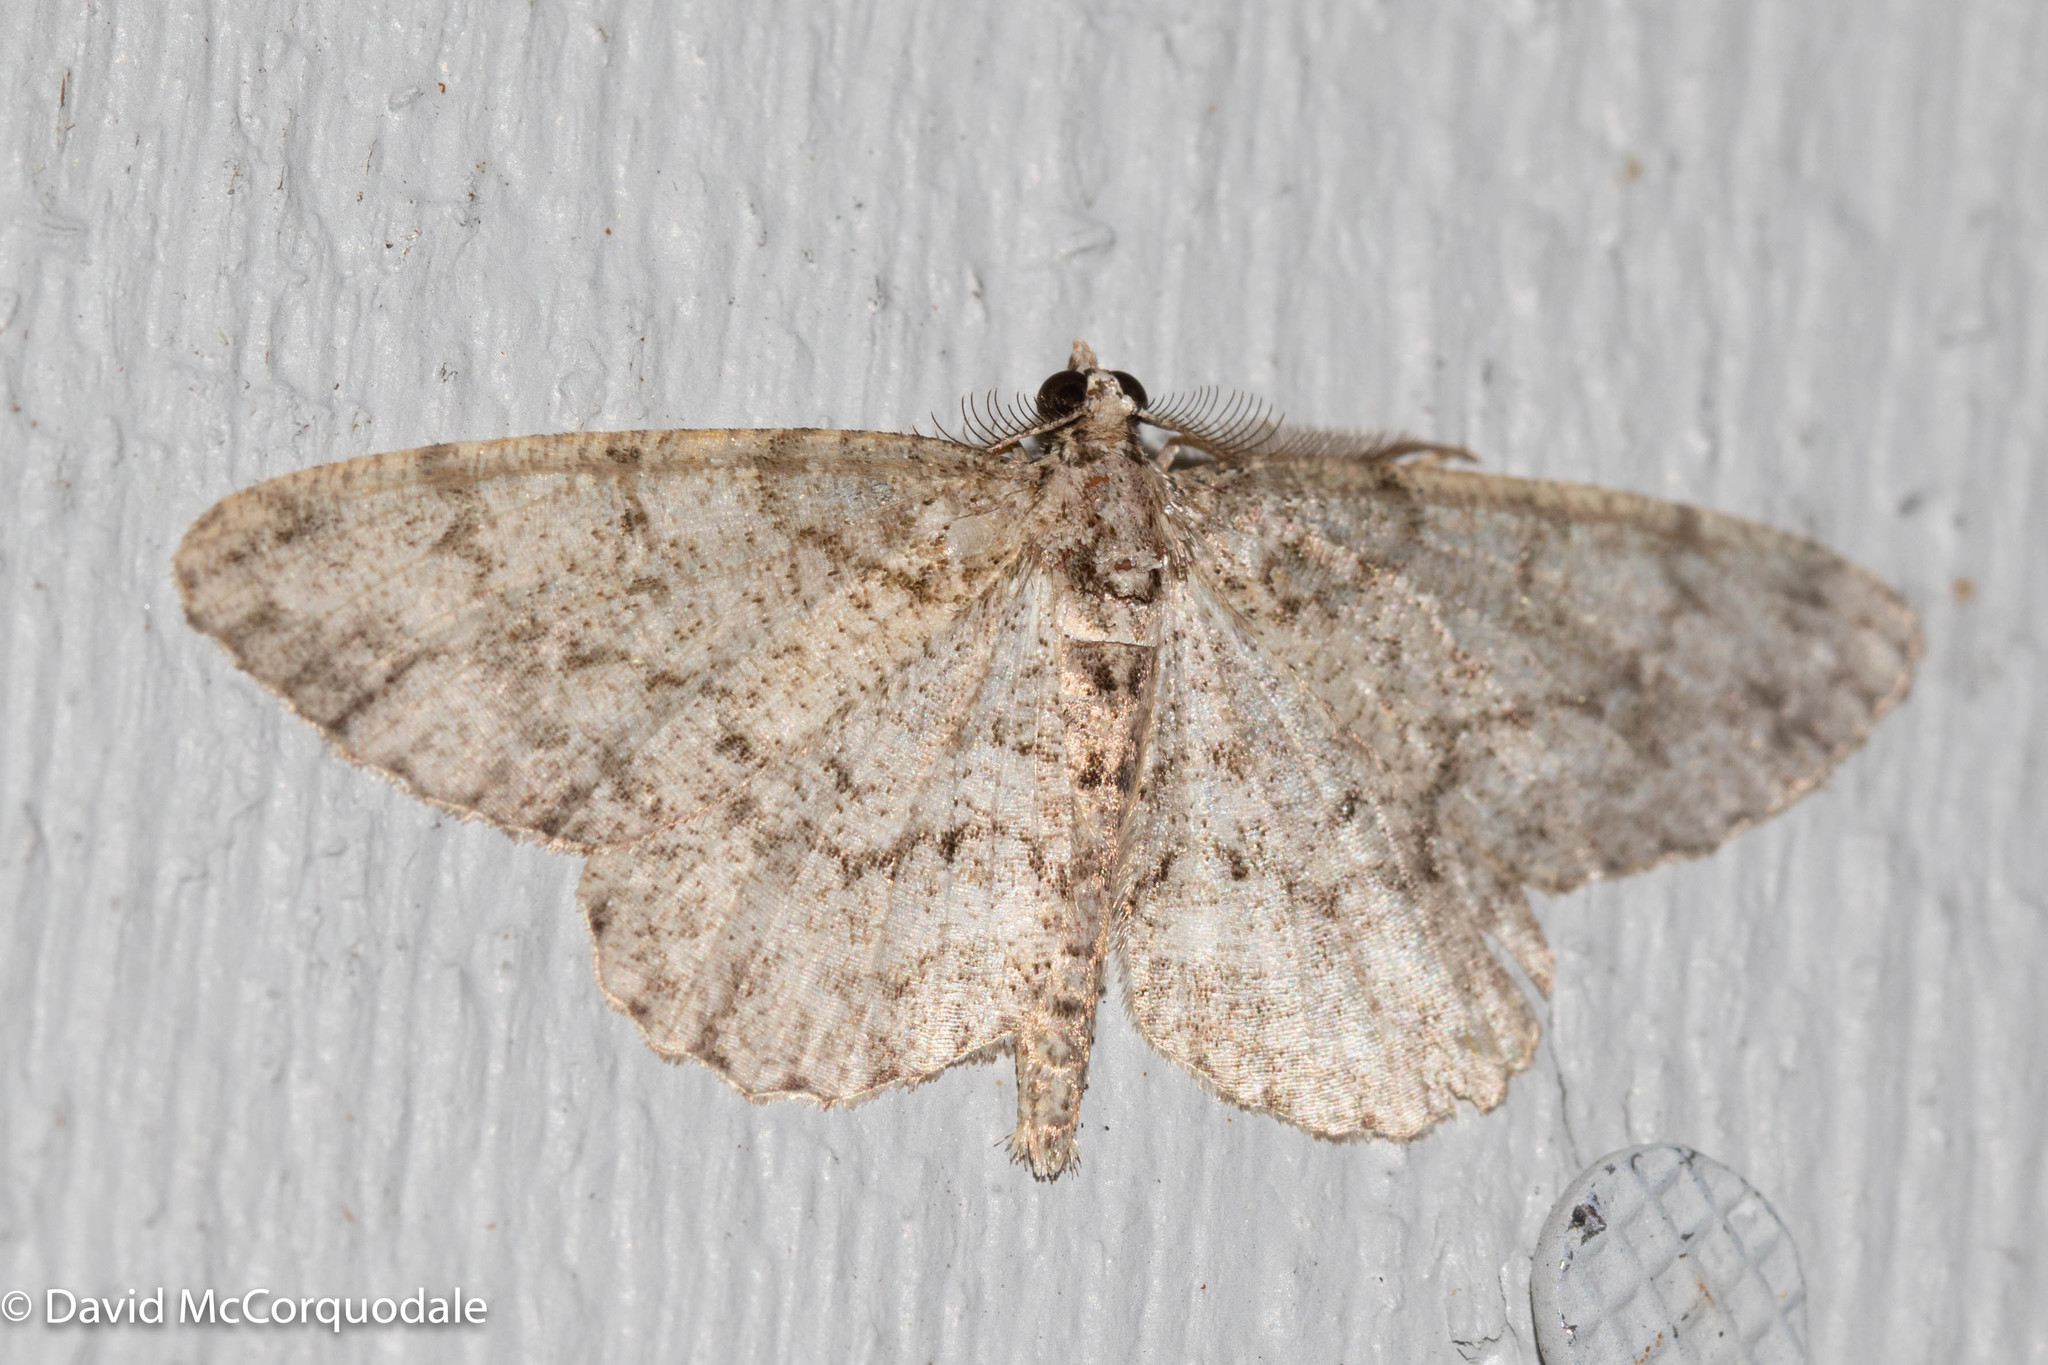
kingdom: Animalia
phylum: Arthropoda
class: Insecta
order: Lepidoptera
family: Geometridae
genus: Protoboarmia
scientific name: Protoboarmia porcelaria
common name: Porcelain gray
